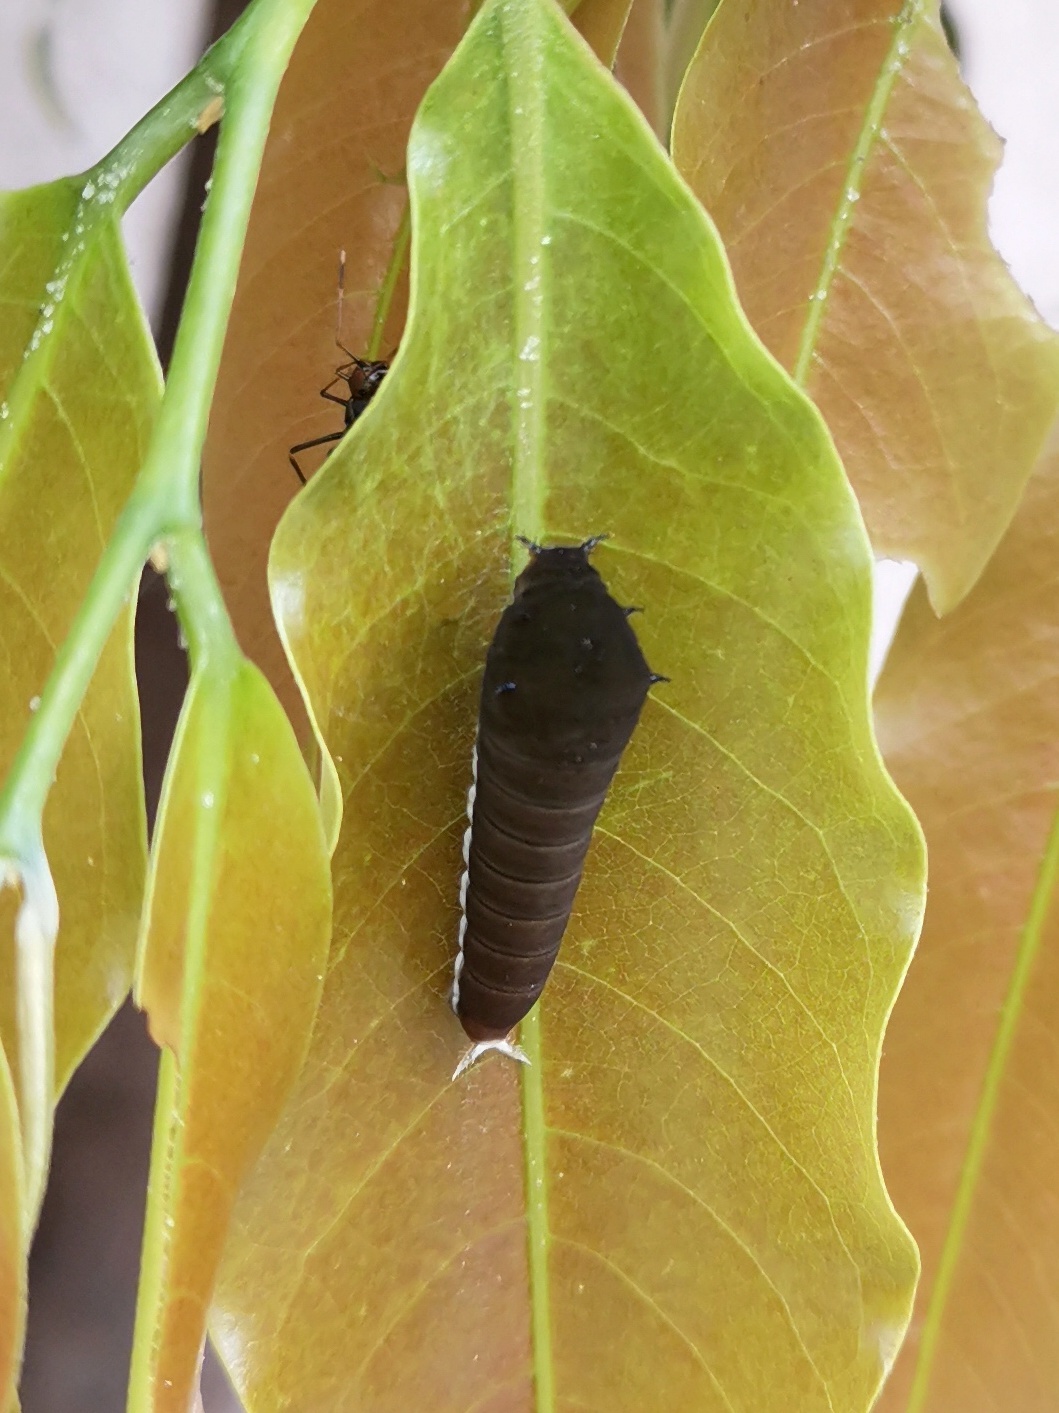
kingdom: Animalia
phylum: Arthropoda
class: Insecta
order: Lepidoptera
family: Papilionidae
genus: Graphium
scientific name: Graphium doson
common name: Common jay
